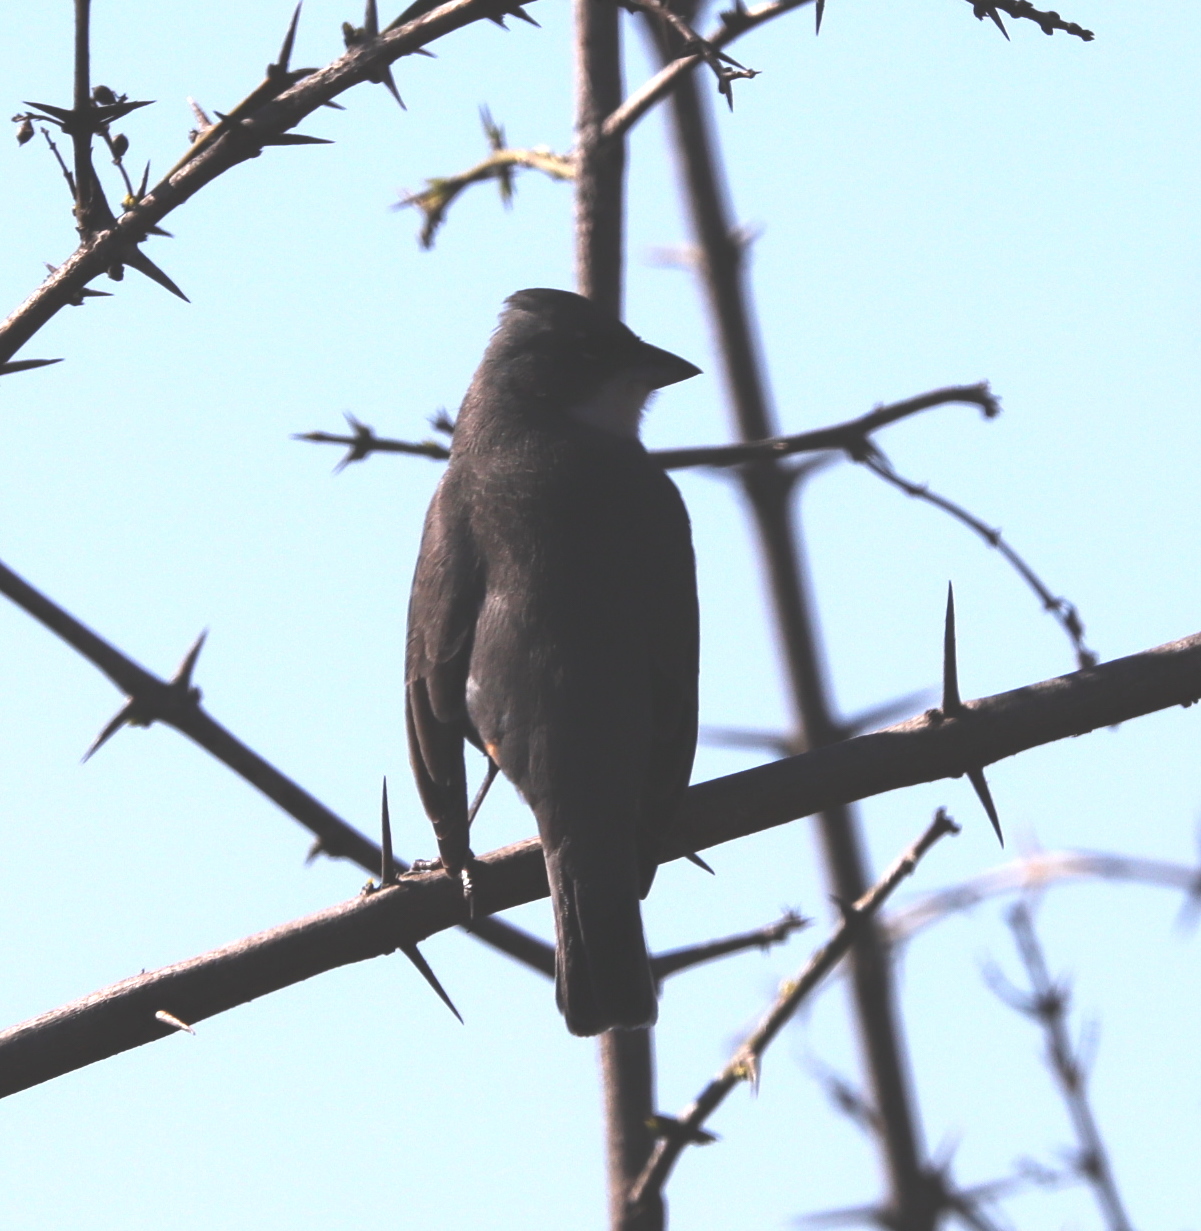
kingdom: Animalia
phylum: Chordata
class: Aves
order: Passeriformes
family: Thraupidae
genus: Diuca
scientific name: Diuca diuca
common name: Common diuca finch
